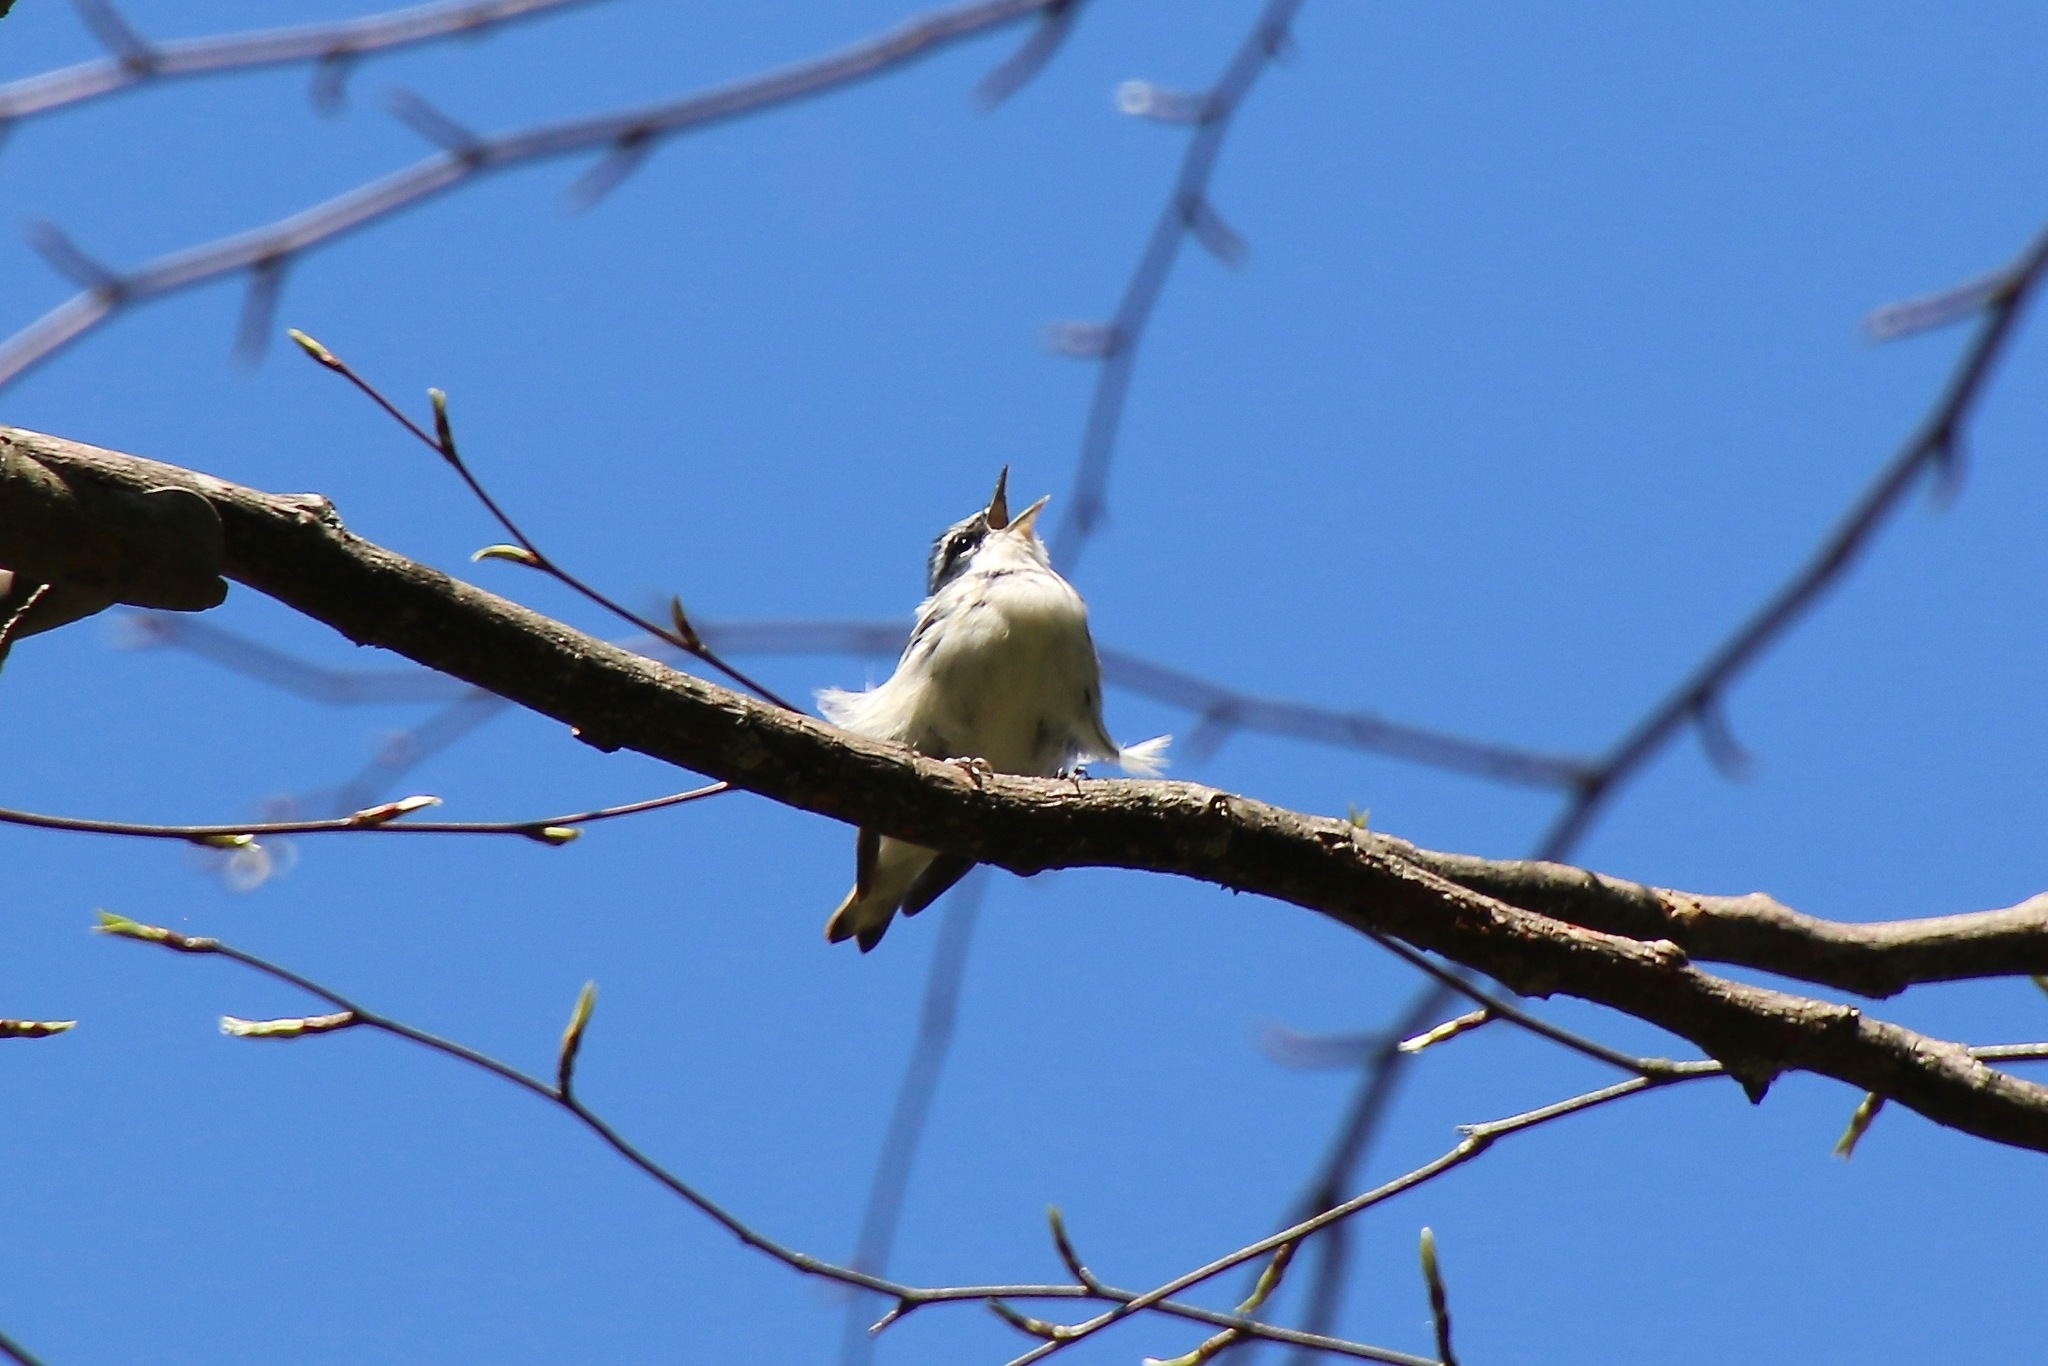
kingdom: Animalia
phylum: Chordata
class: Aves
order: Passeriformes
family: Parulidae
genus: Setophaga
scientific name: Setophaga cerulea
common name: Cerulean warbler
